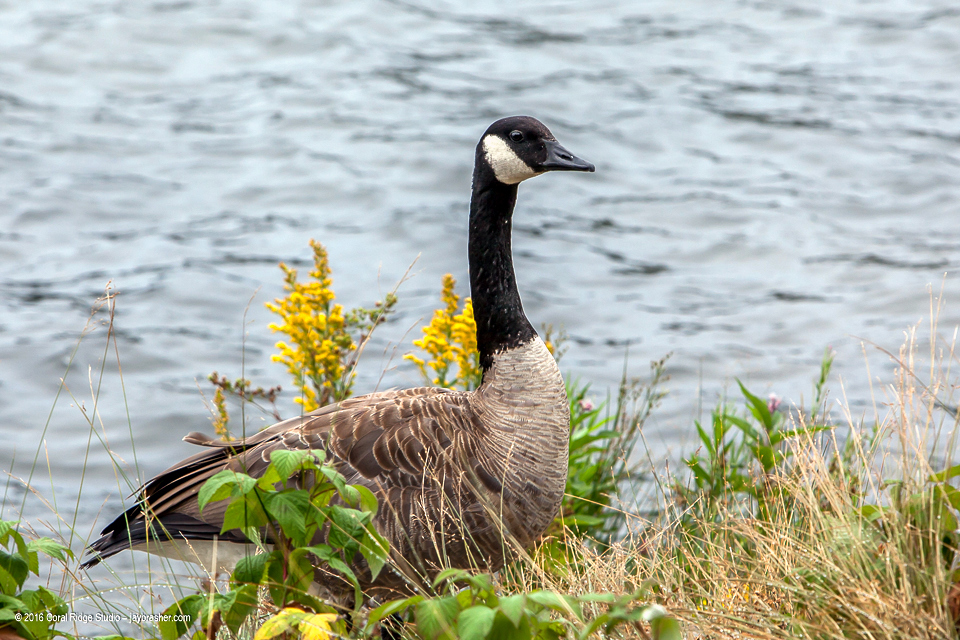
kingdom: Animalia
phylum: Chordata
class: Aves
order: Anseriformes
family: Anatidae
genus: Branta
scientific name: Branta canadensis
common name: Canada goose
